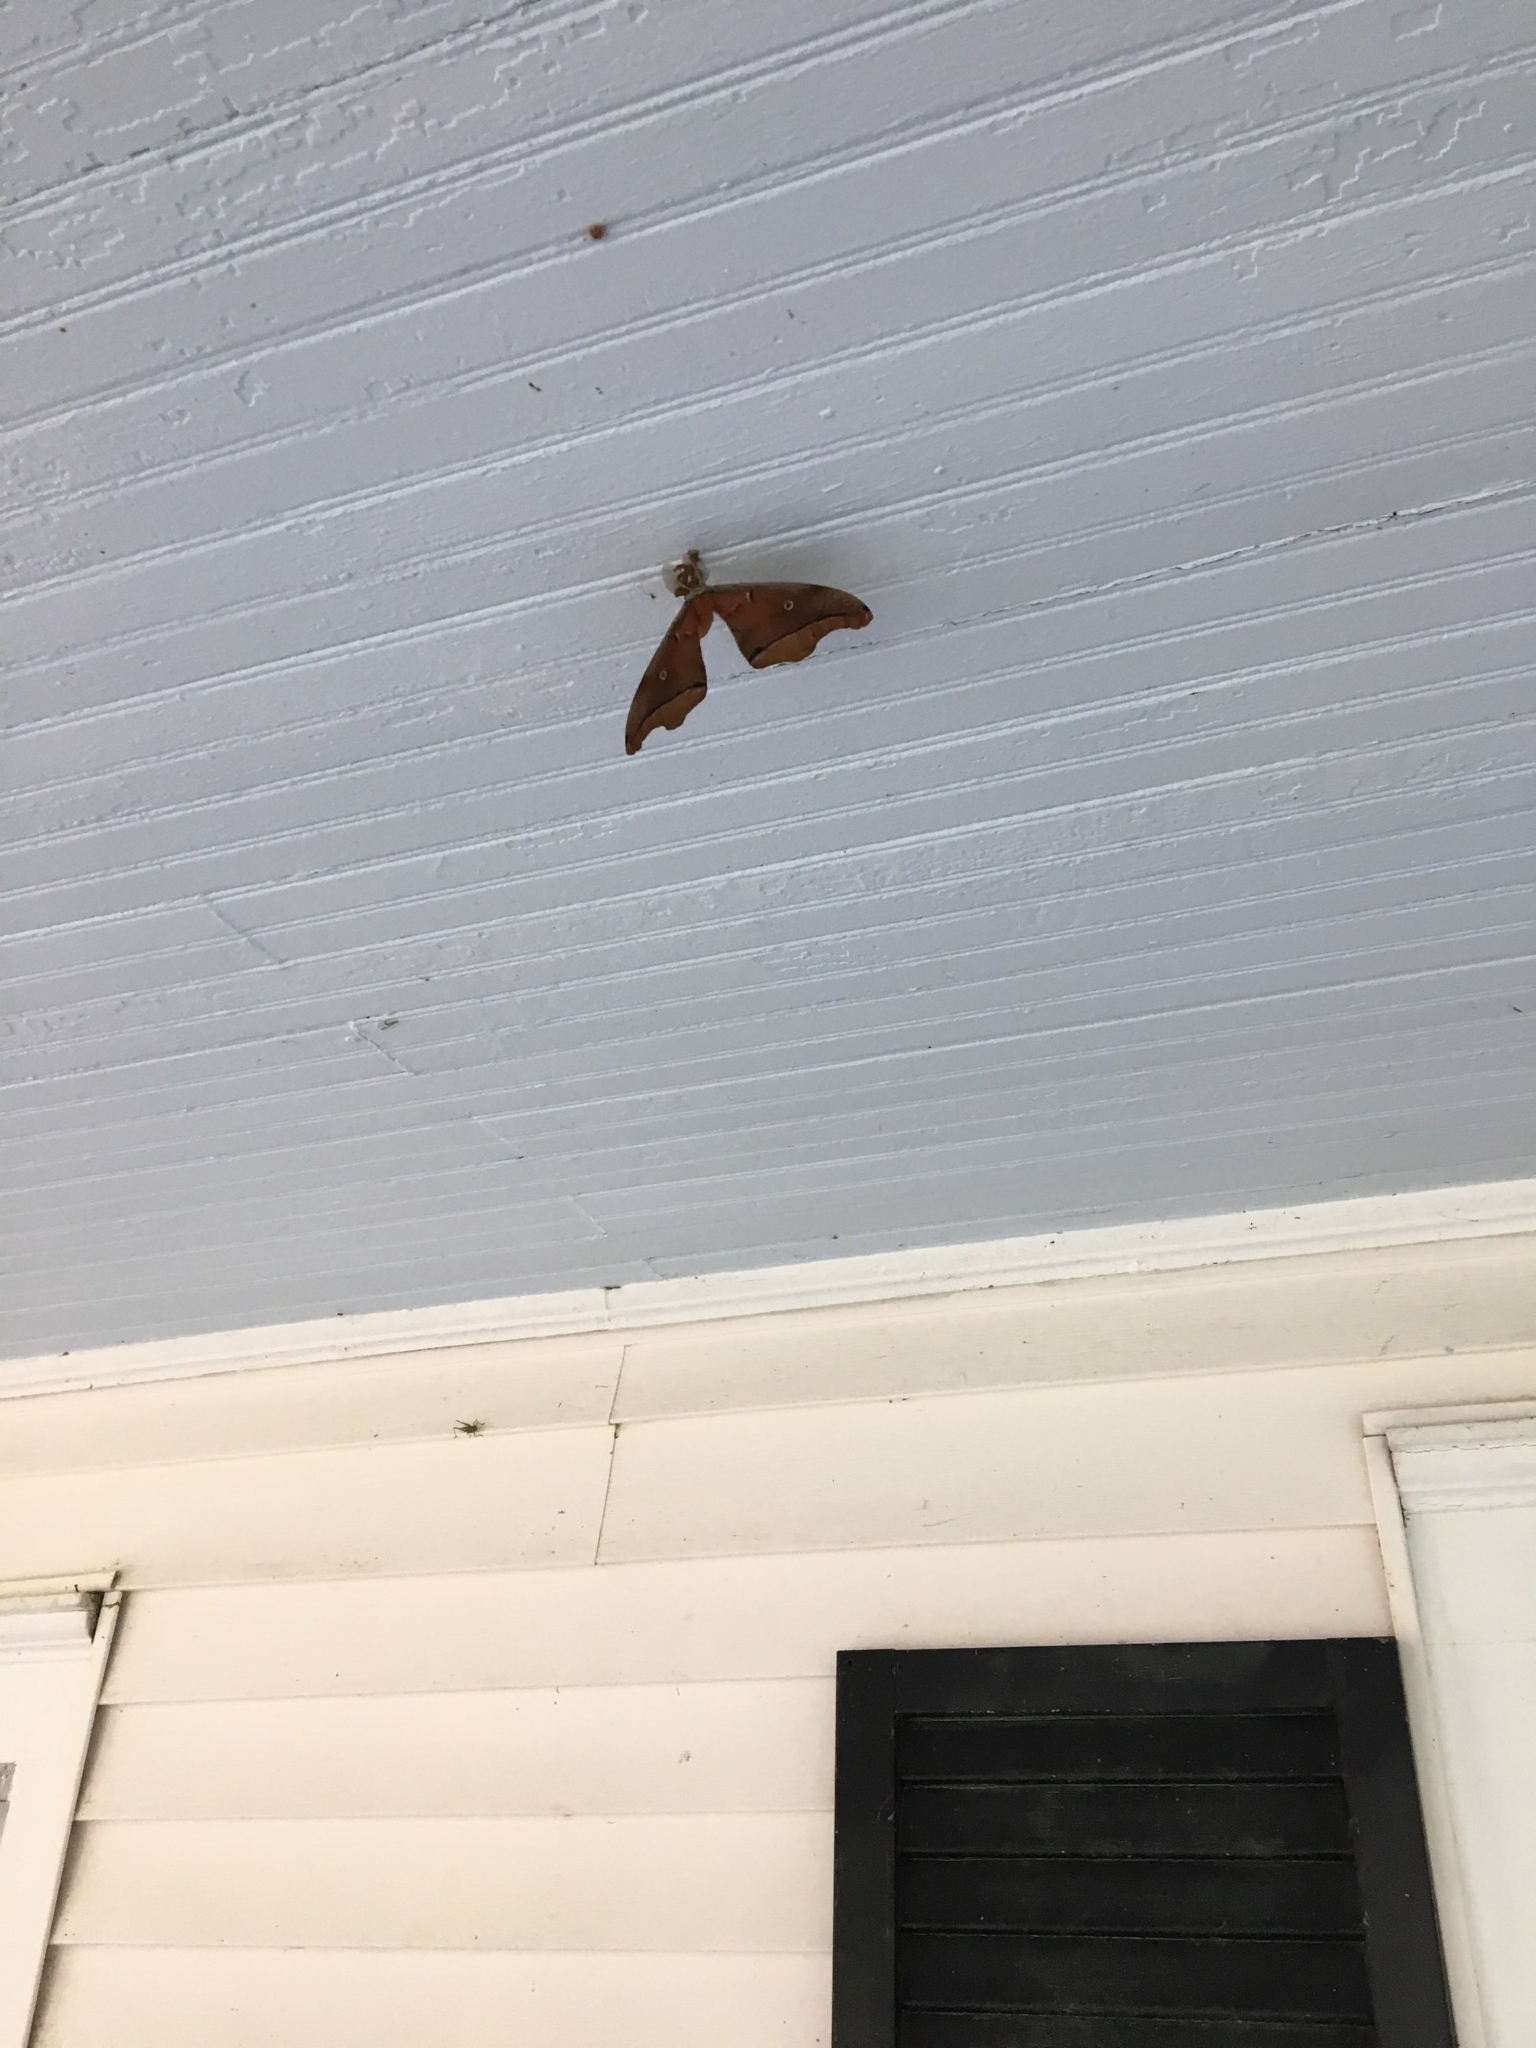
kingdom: Animalia
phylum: Arthropoda
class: Insecta
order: Lepidoptera
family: Saturniidae
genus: Antheraea
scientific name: Antheraea polyphemus
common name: Polyphemus moth
